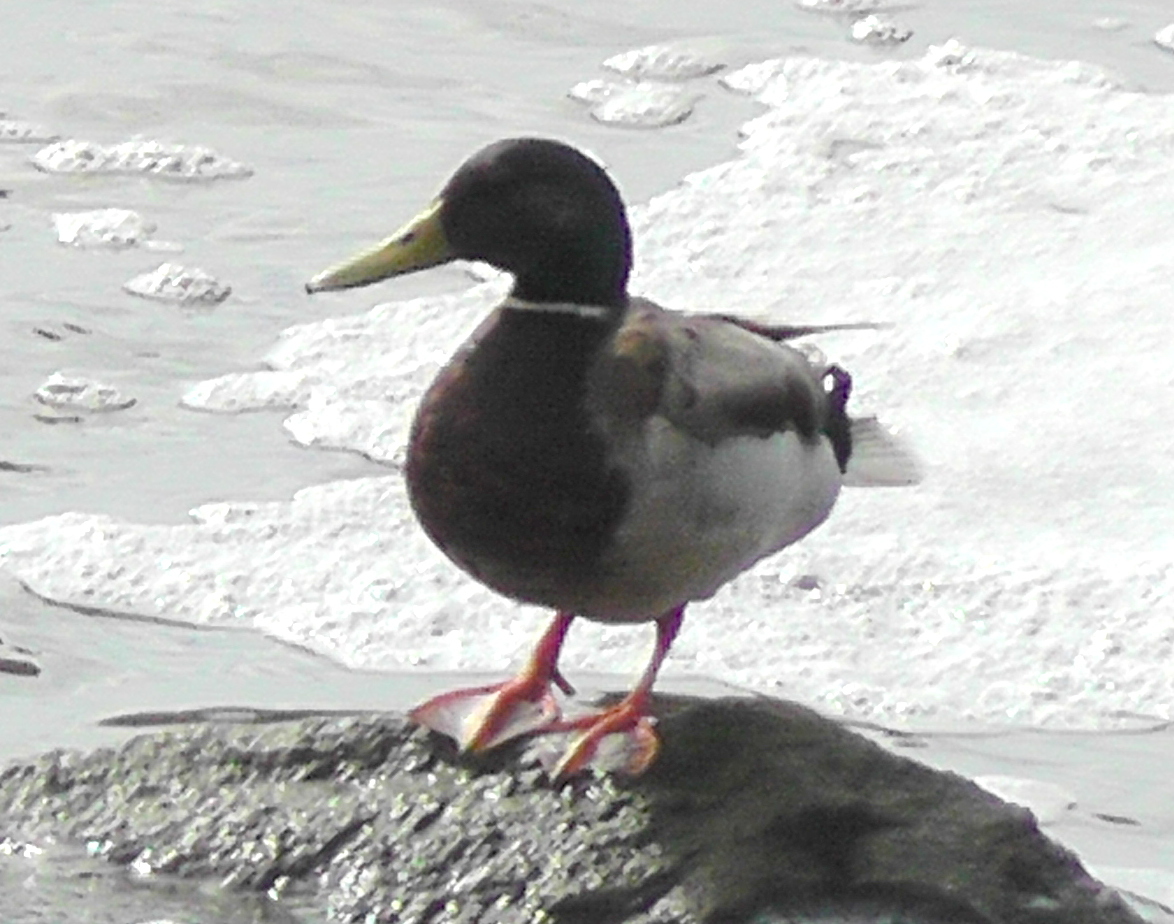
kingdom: Animalia
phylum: Chordata
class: Aves
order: Anseriformes
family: Anatidae
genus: Anas
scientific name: Anas platyrhynchos
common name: Mallard
